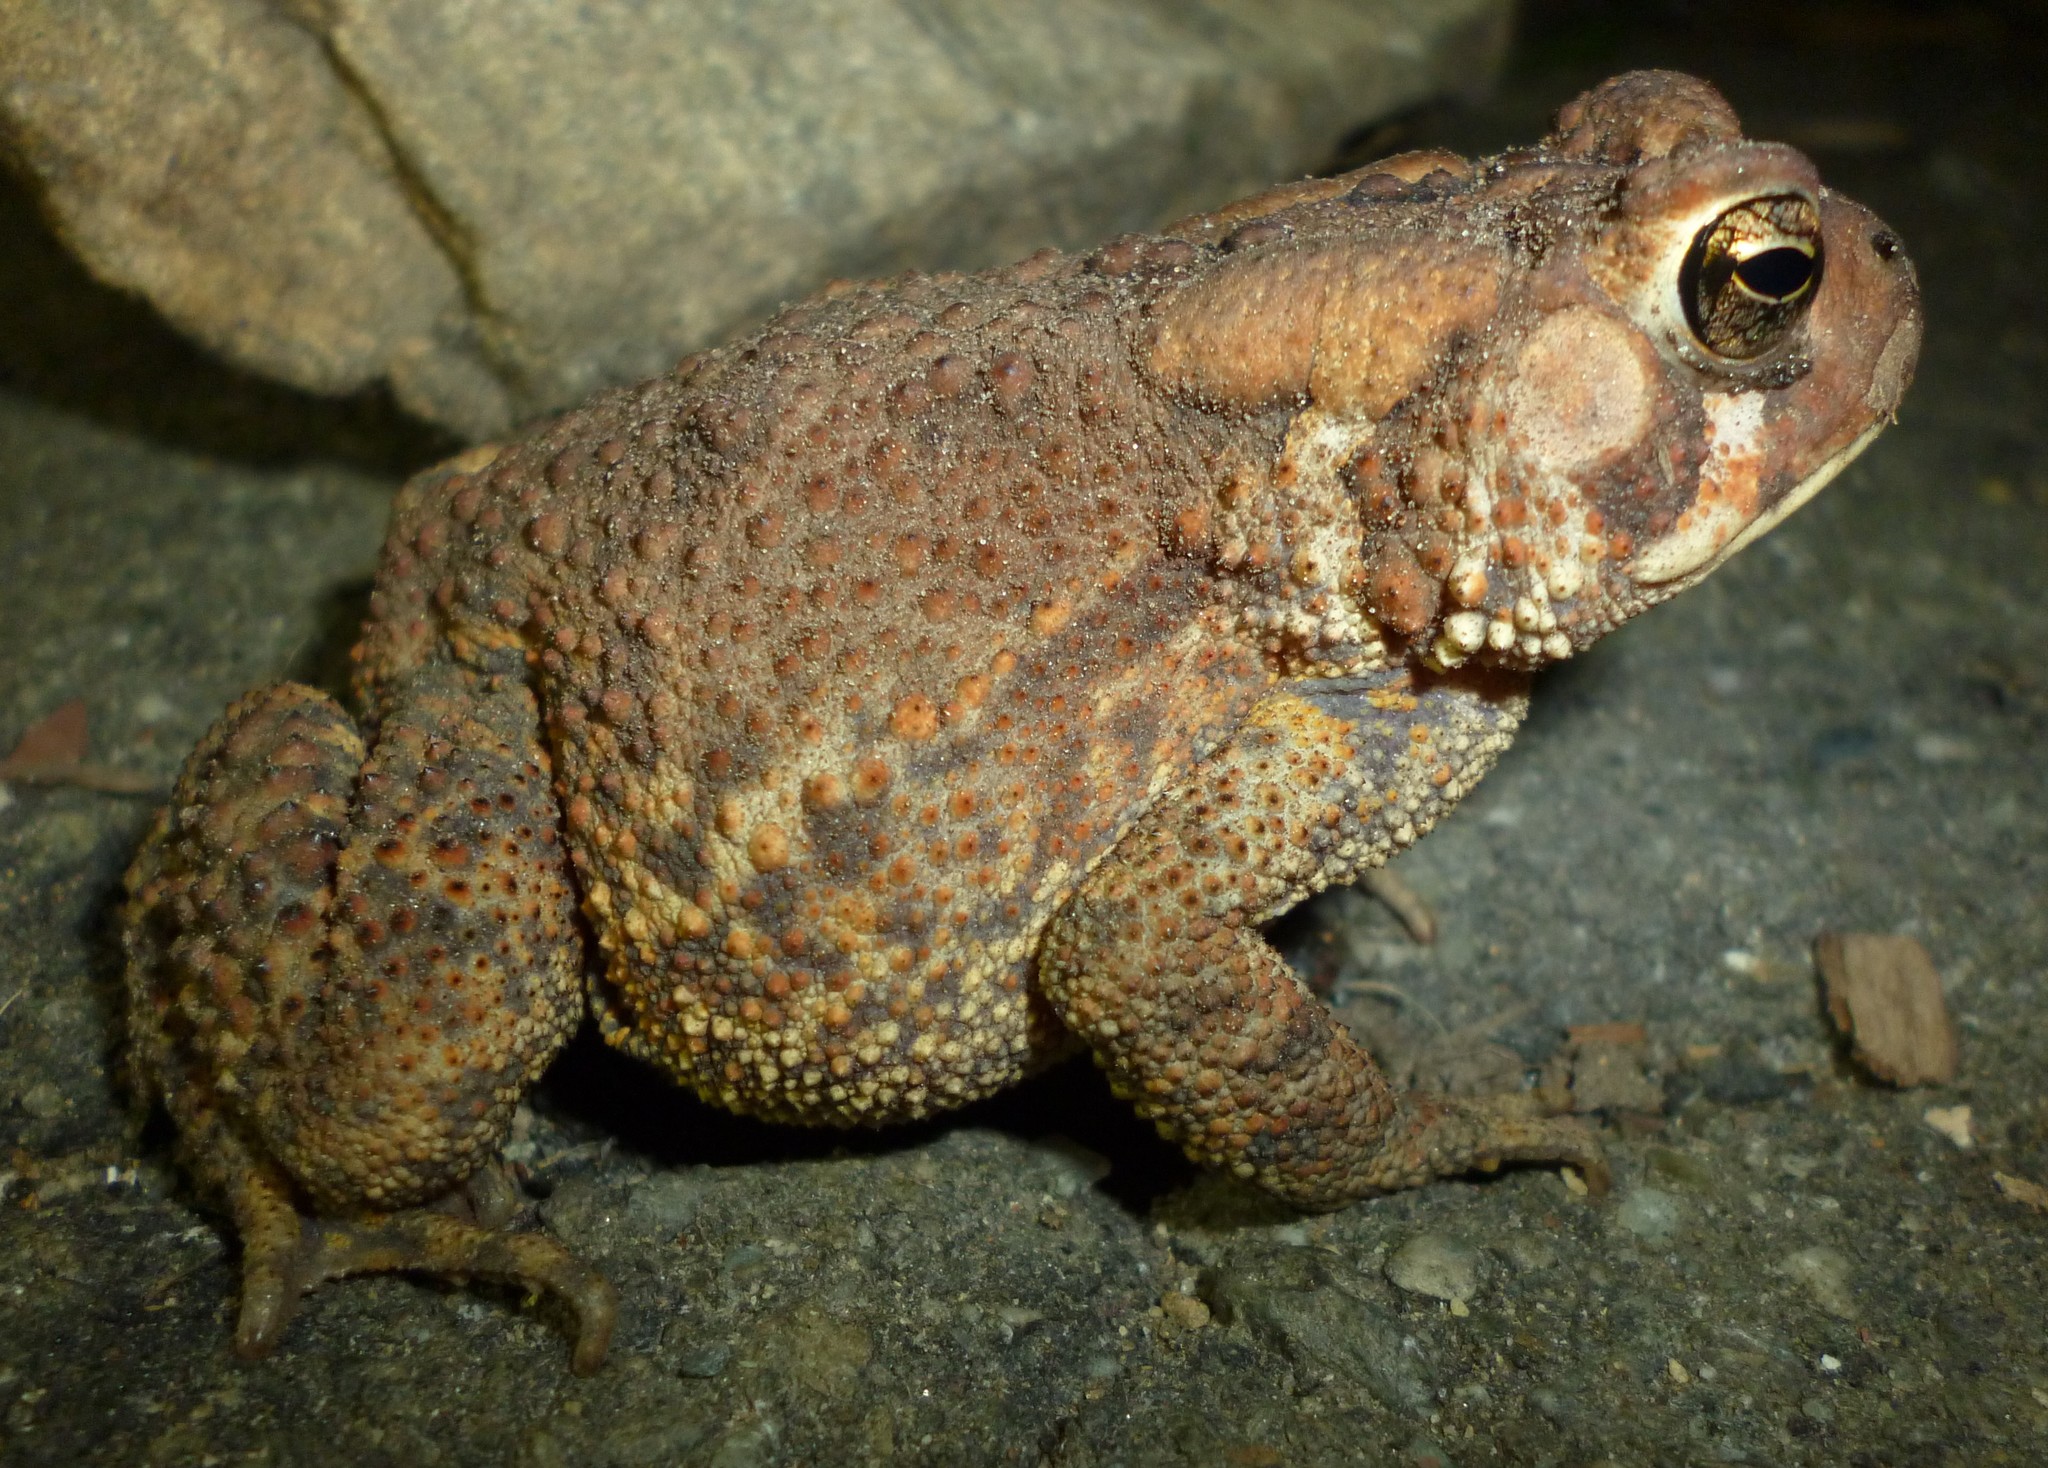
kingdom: Animalia
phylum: Chordata
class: Amphibia
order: Anura
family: Bufonidae
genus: Anaxyrus
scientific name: Anaxyrus americanus
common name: American toad
